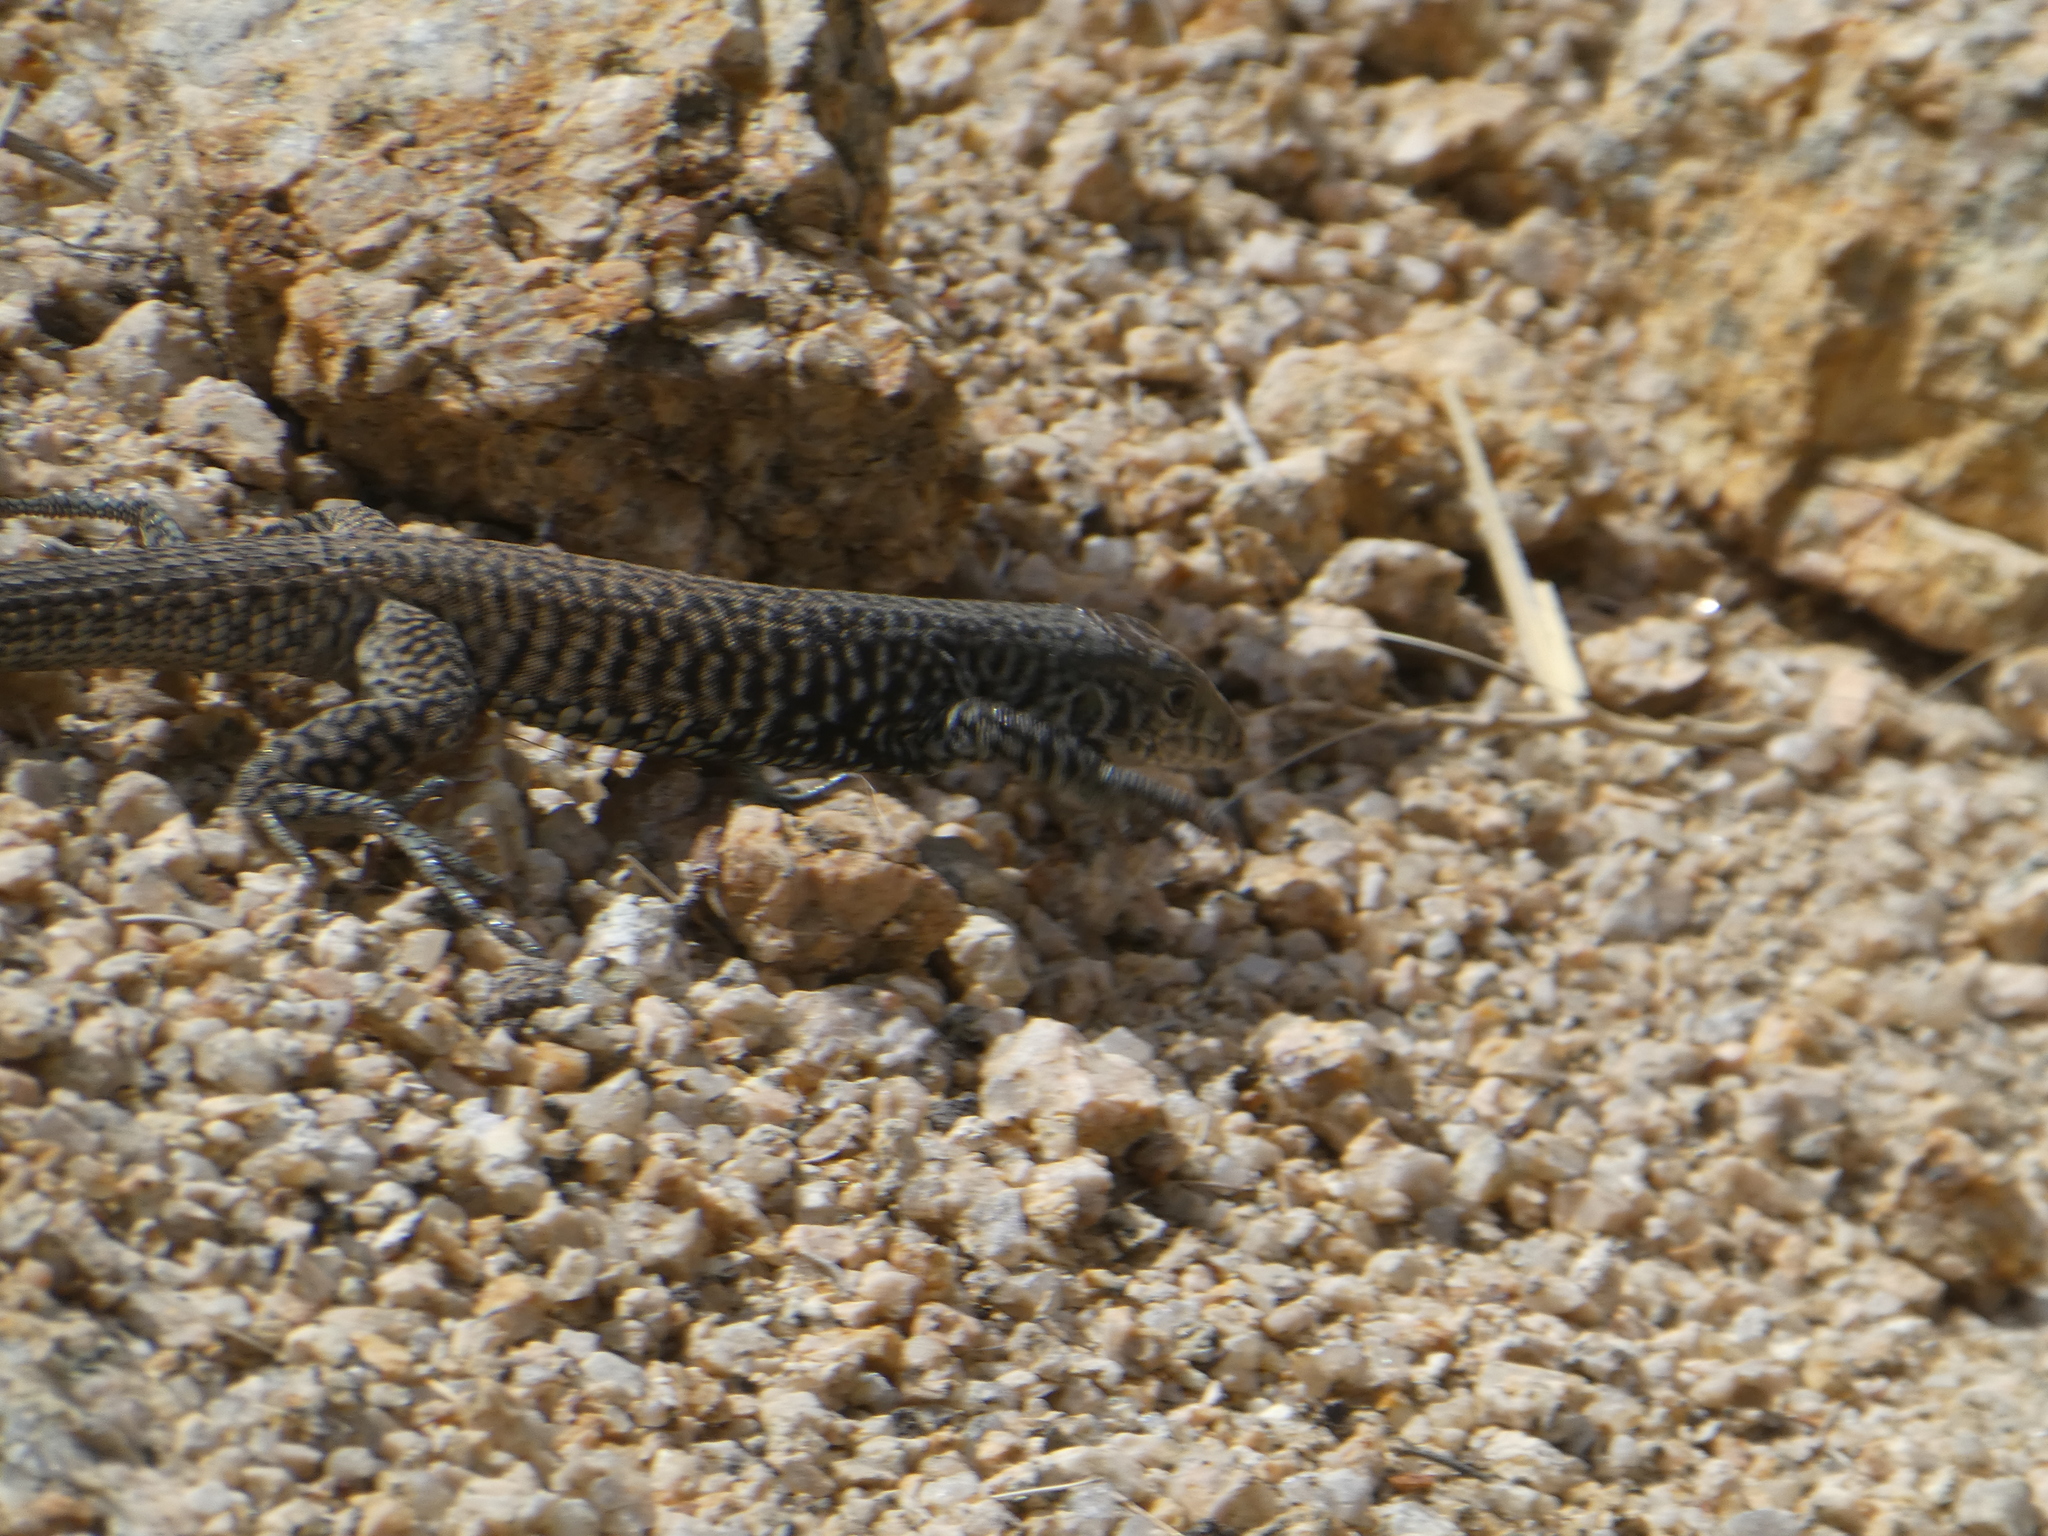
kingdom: Animalia
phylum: Chordata
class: Squamata
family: Teiidae
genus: Aspidoscelis
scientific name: Aspidoscelis tigris
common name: Tiger whiptail
